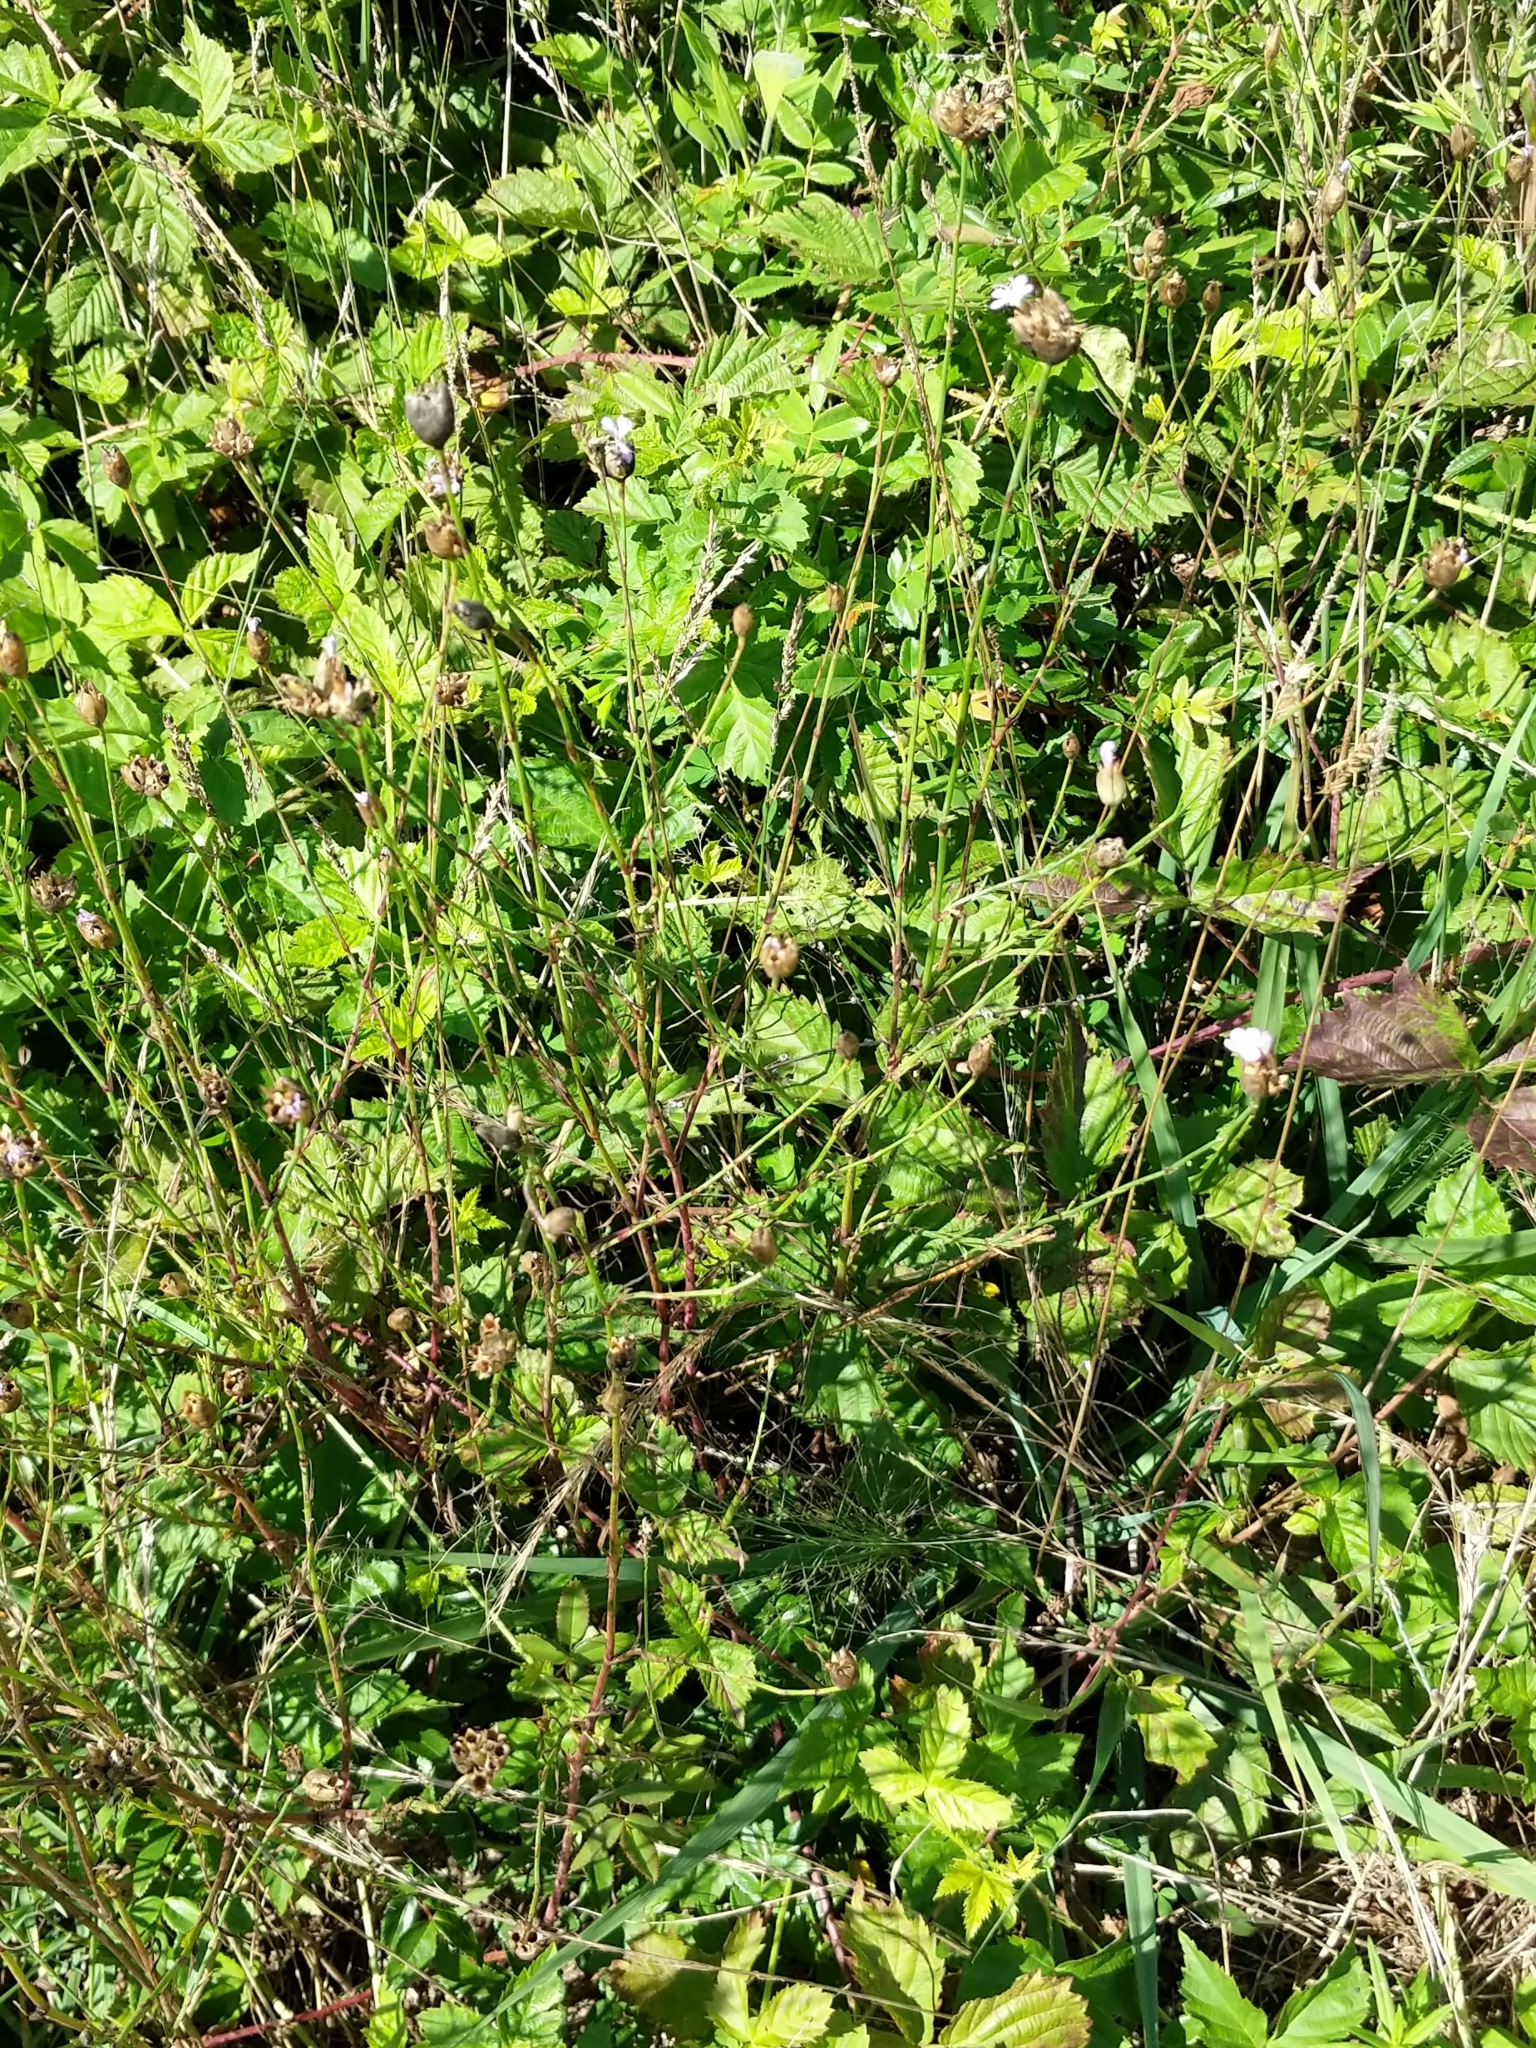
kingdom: Plantae
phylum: Tracheophyta
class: Magnoliopsida
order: Caryophyllales
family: Caryophyllaceae
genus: Petrorhagia
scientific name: Petrorhagia prolifera
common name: Proliferous pink
